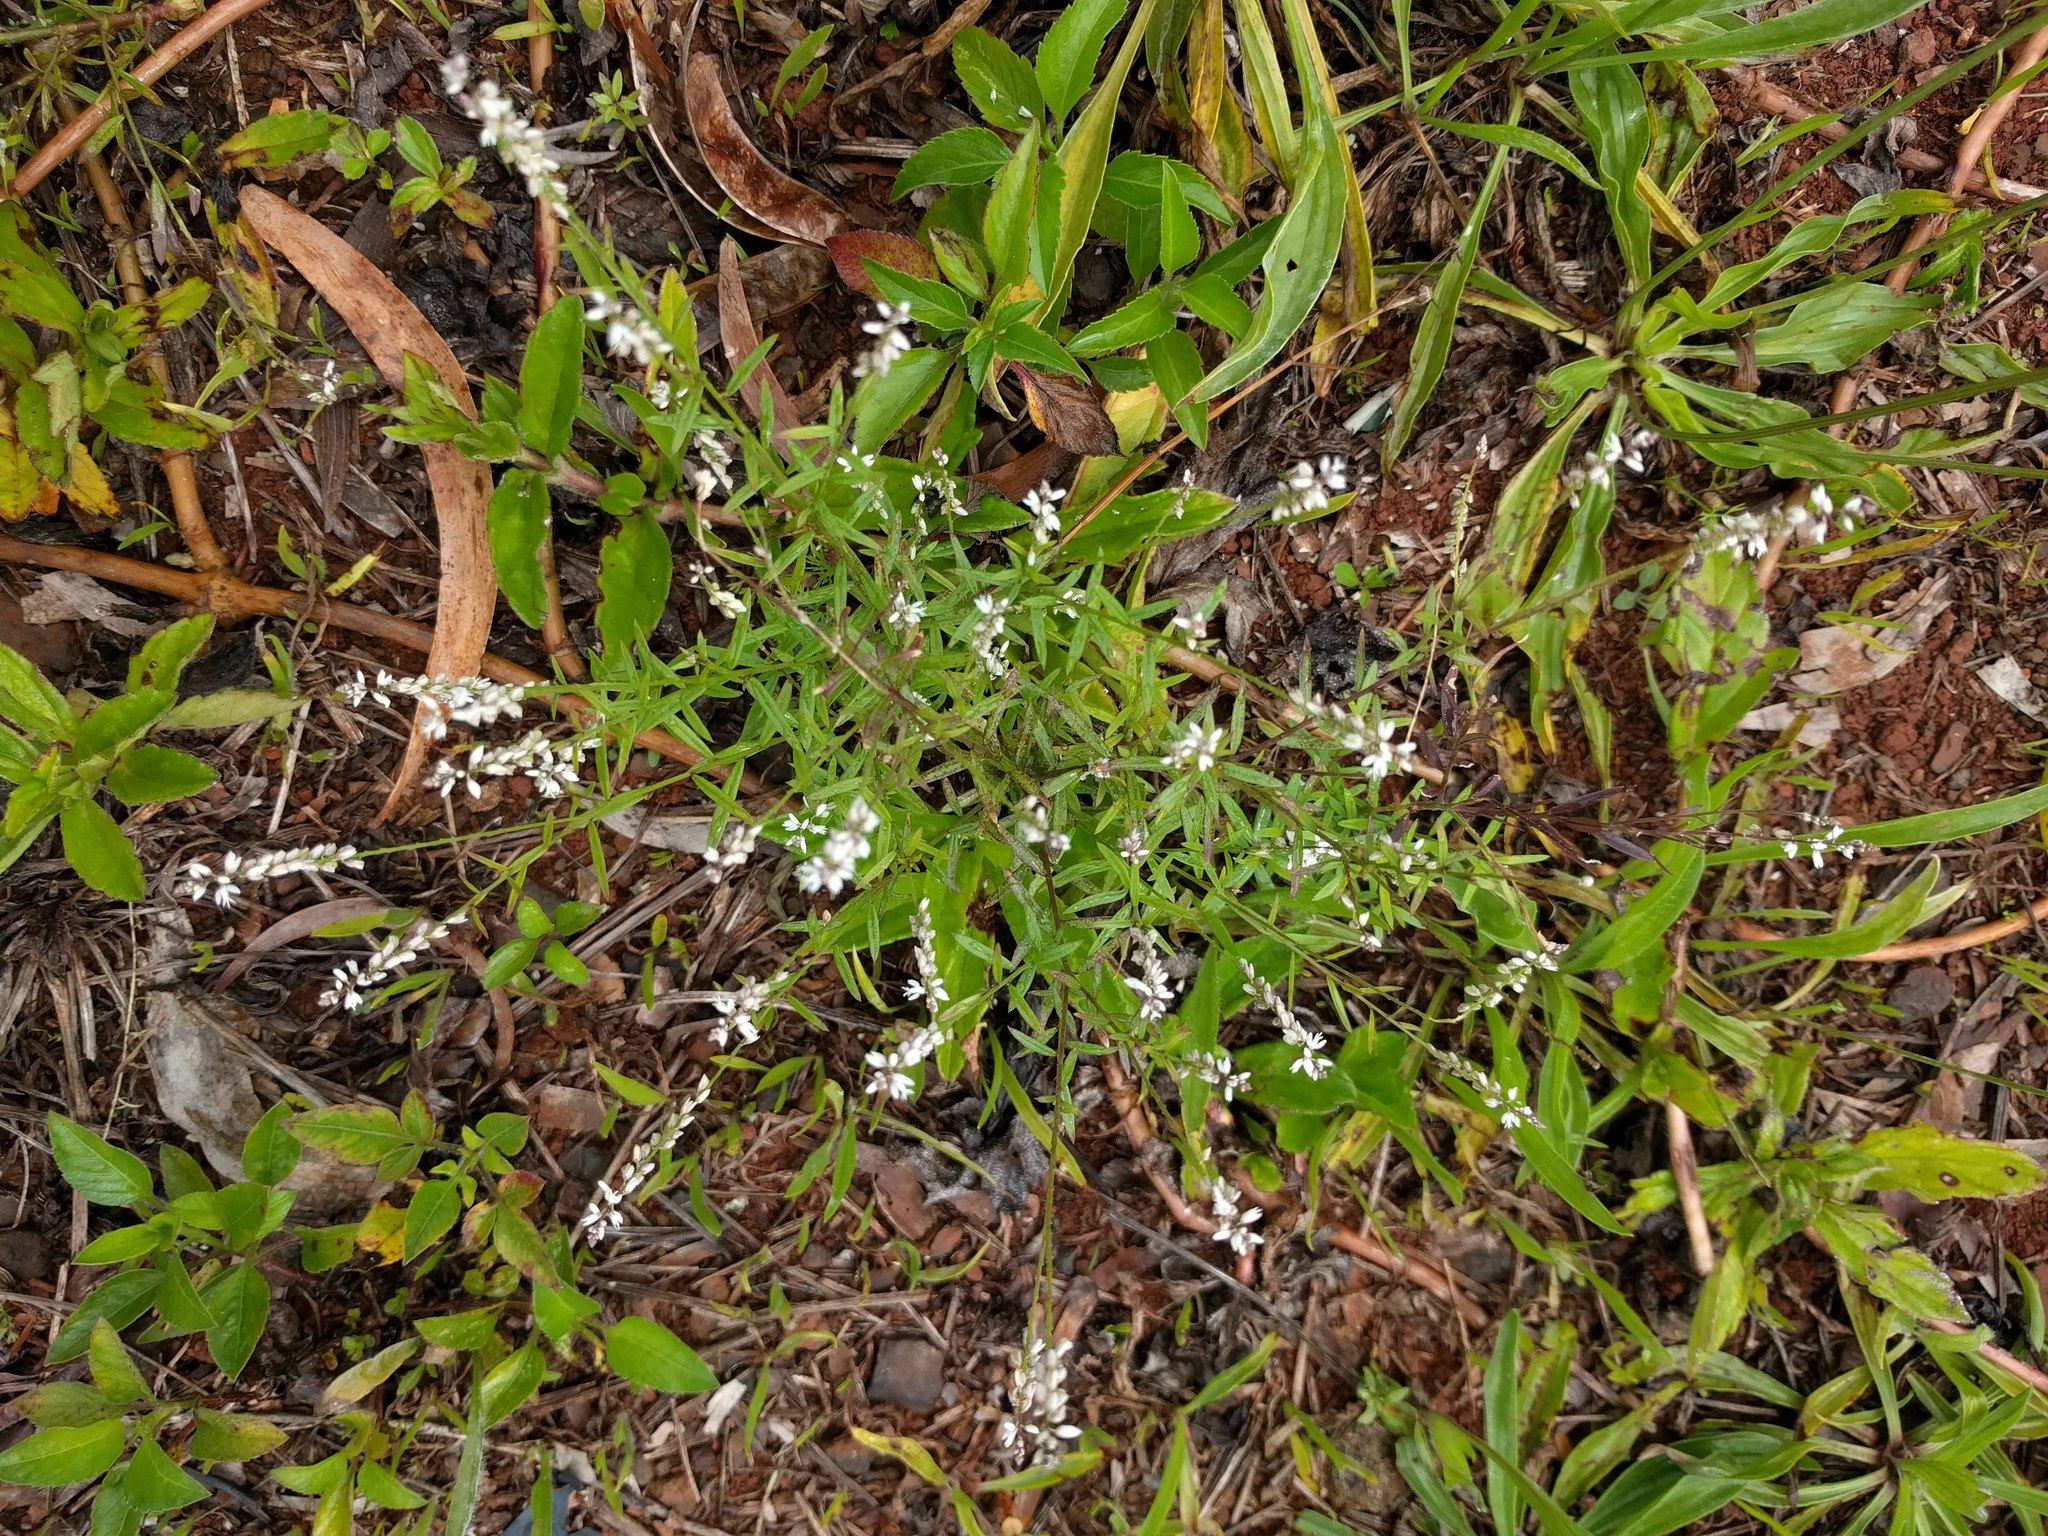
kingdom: Plantae
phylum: Tracheophyta
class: Magnoliopsida
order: Fabales
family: Polygalaceae
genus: Polygala
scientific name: Polygala paniculata
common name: Orosne
